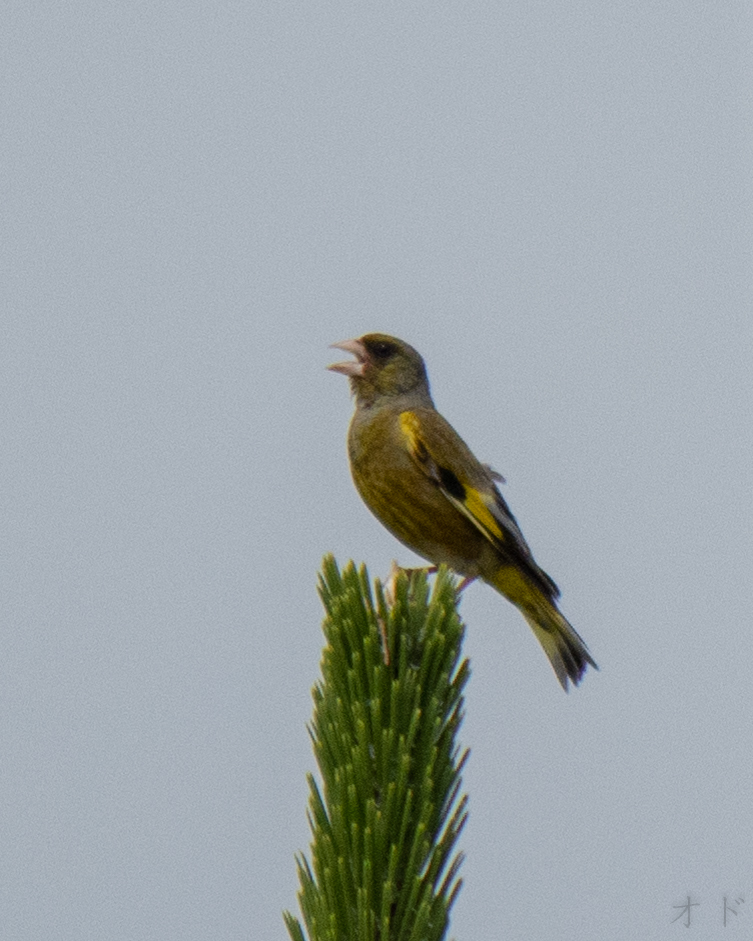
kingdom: Plantae
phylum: Tracheophyta
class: Liliopsida
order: Poales
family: Poaceae
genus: Chloris
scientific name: Chloris sinica
